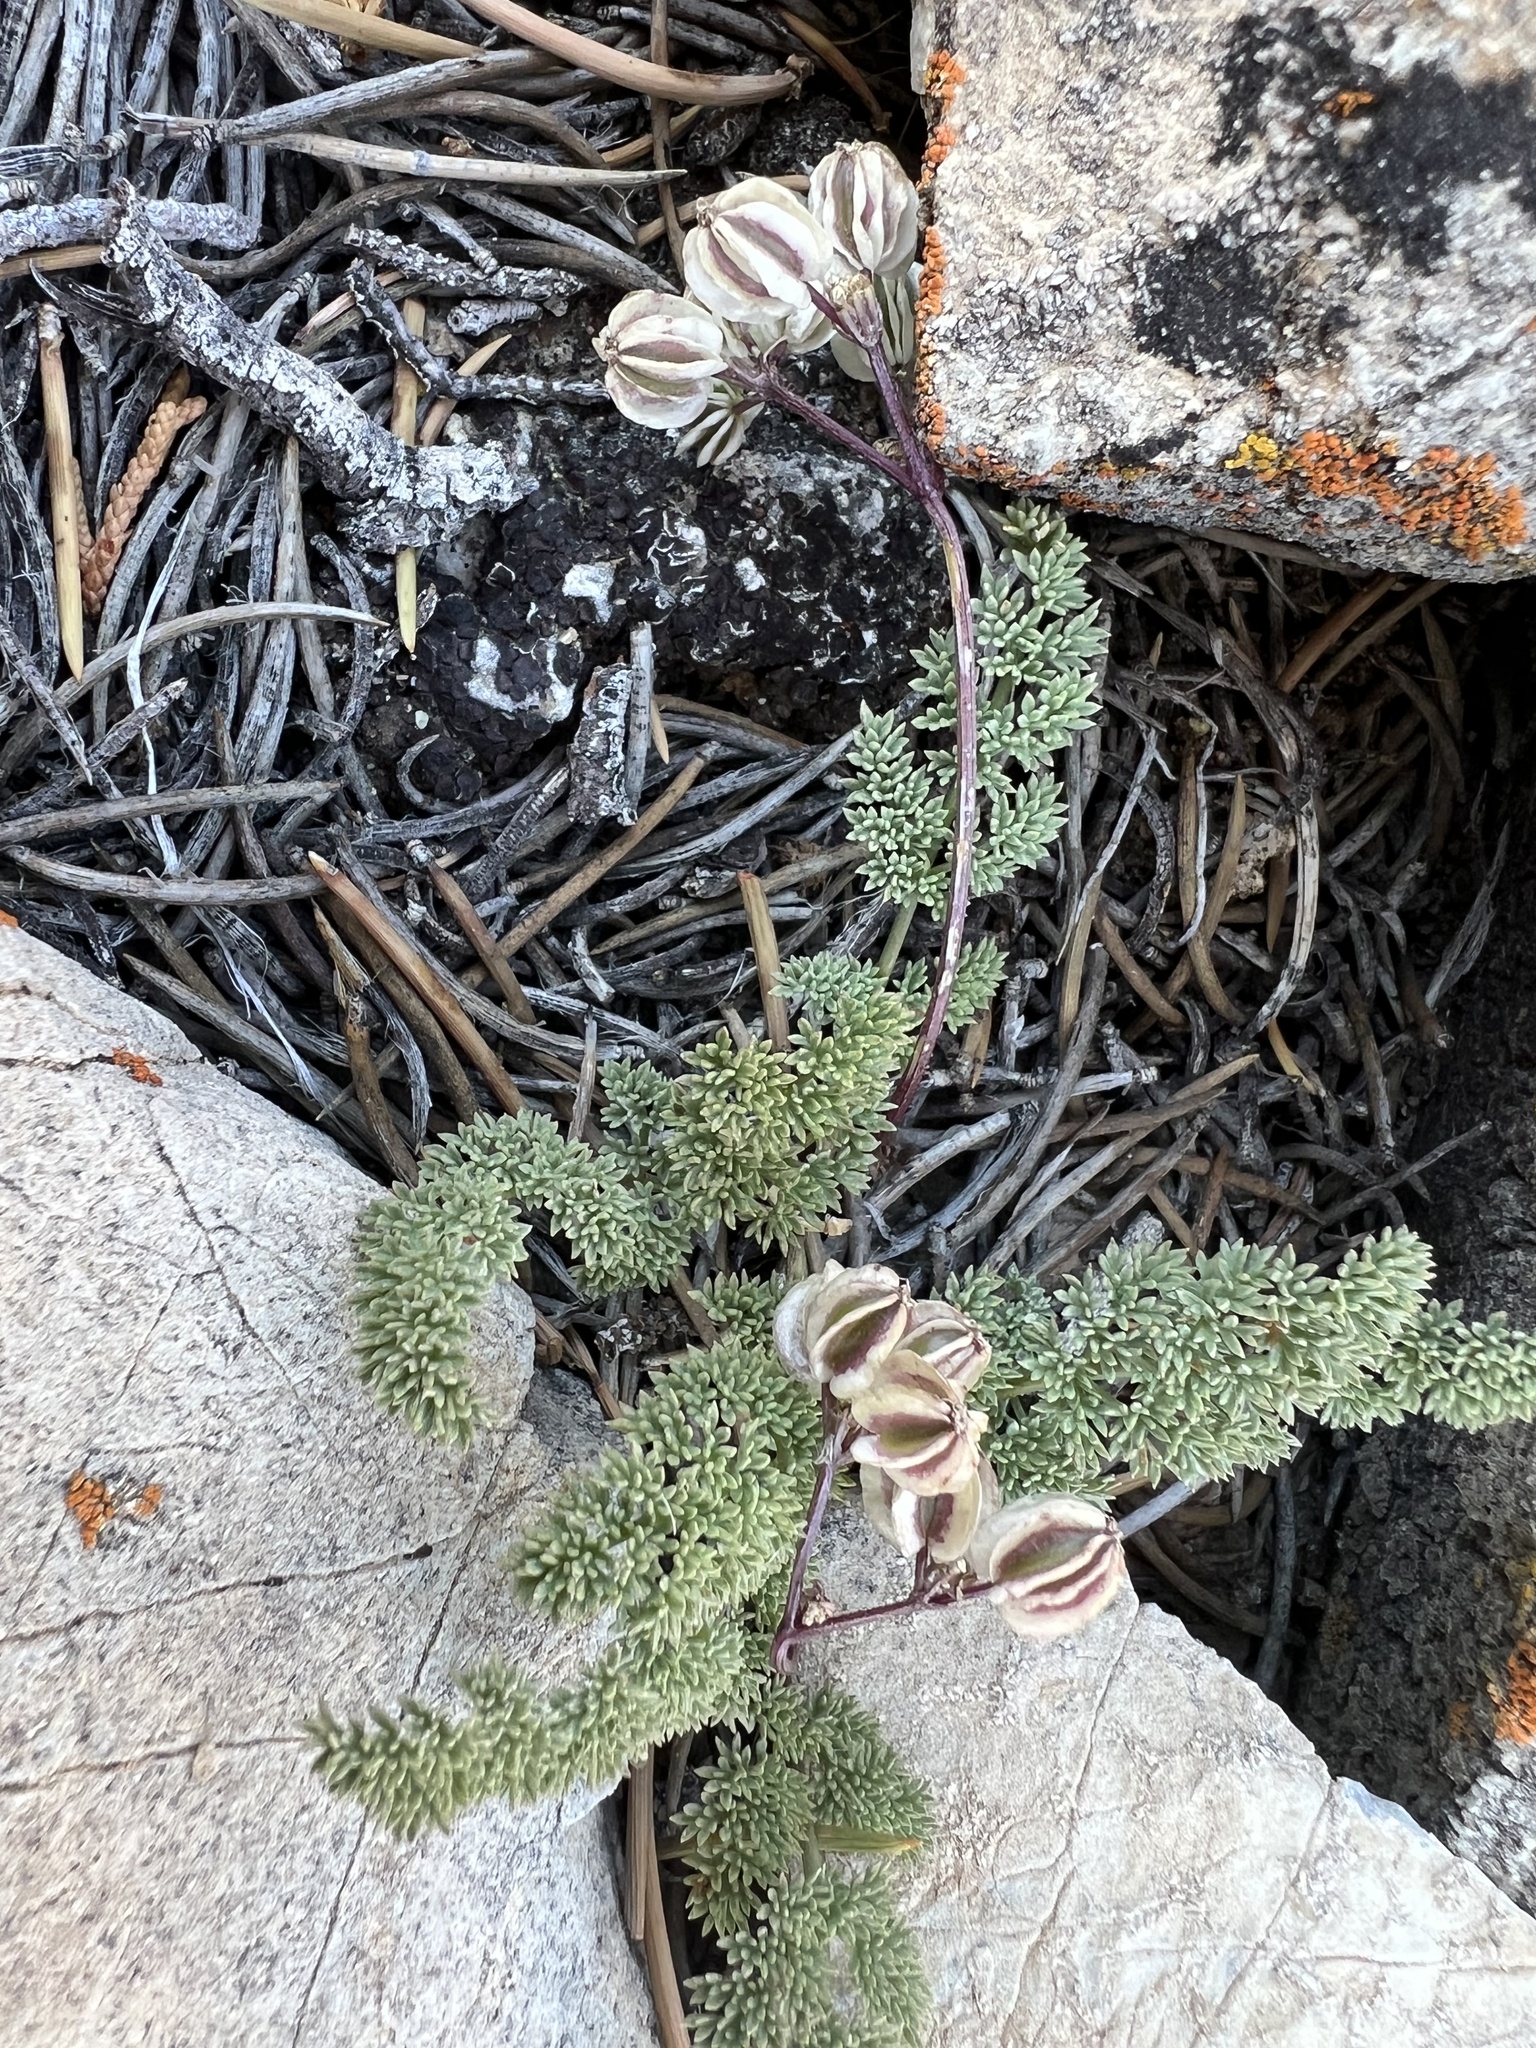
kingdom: Plantae
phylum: Tracheophyta
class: Magnoliopsida
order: Apiales
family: Apiaceae
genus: Aulospermum
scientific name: Aulospermum aboriginum
